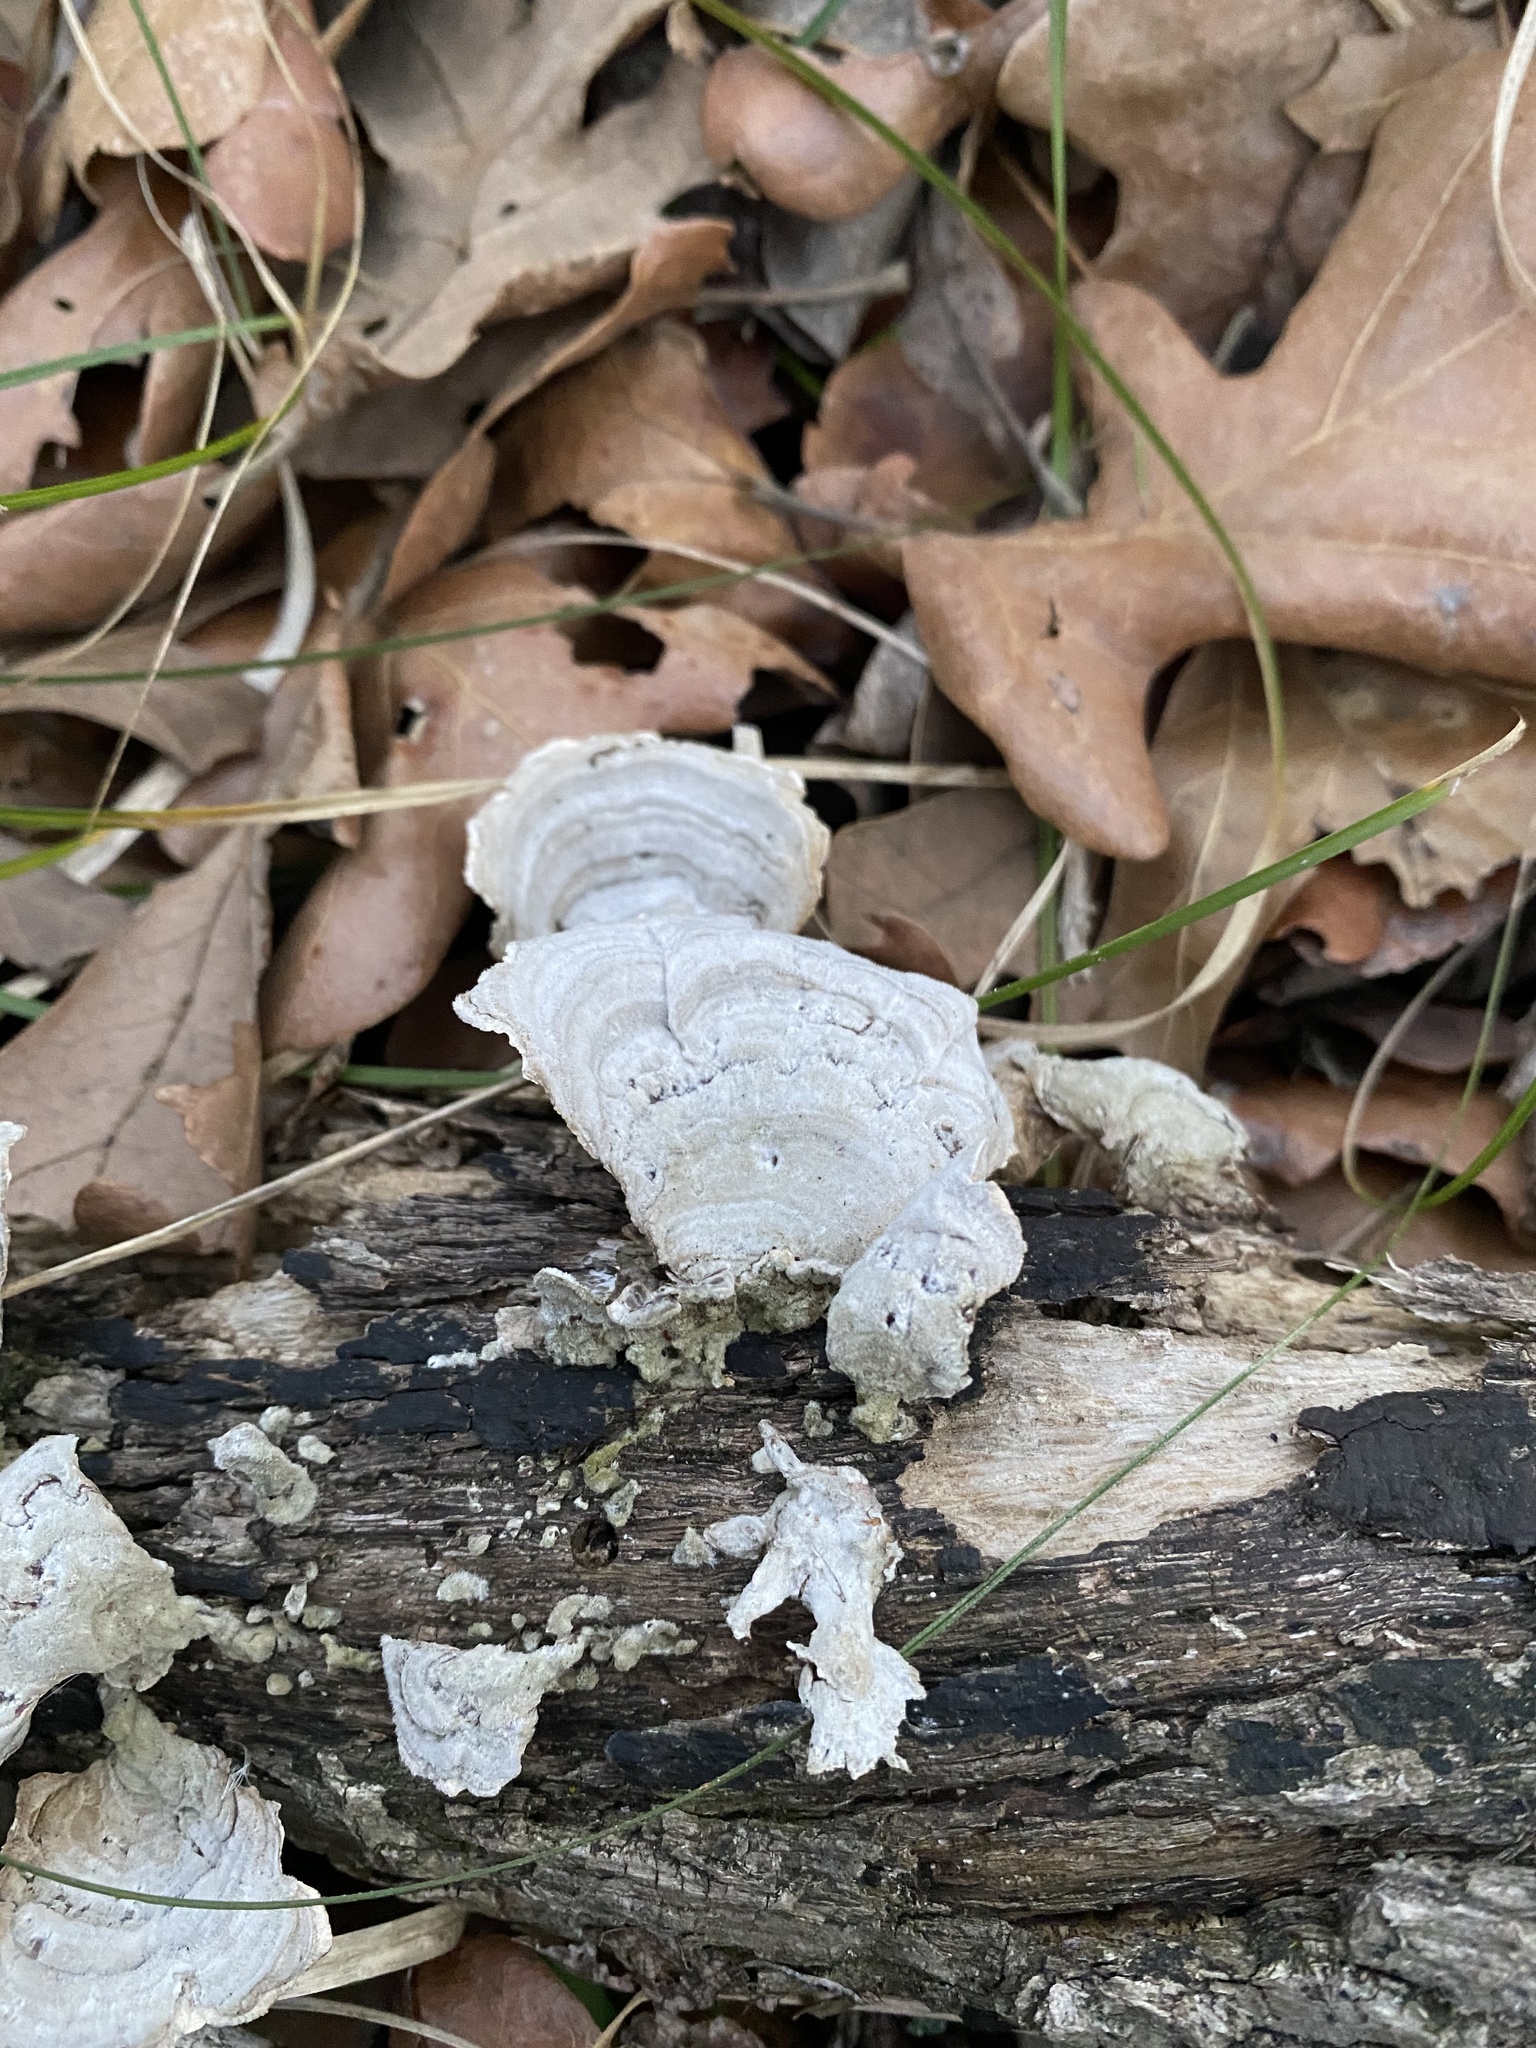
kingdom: Fungi
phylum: Basidiomycota
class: Agaricomycetes
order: Russulales
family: Stereaceae
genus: Stereum
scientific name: Stereum ostrea
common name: False turkeytail
